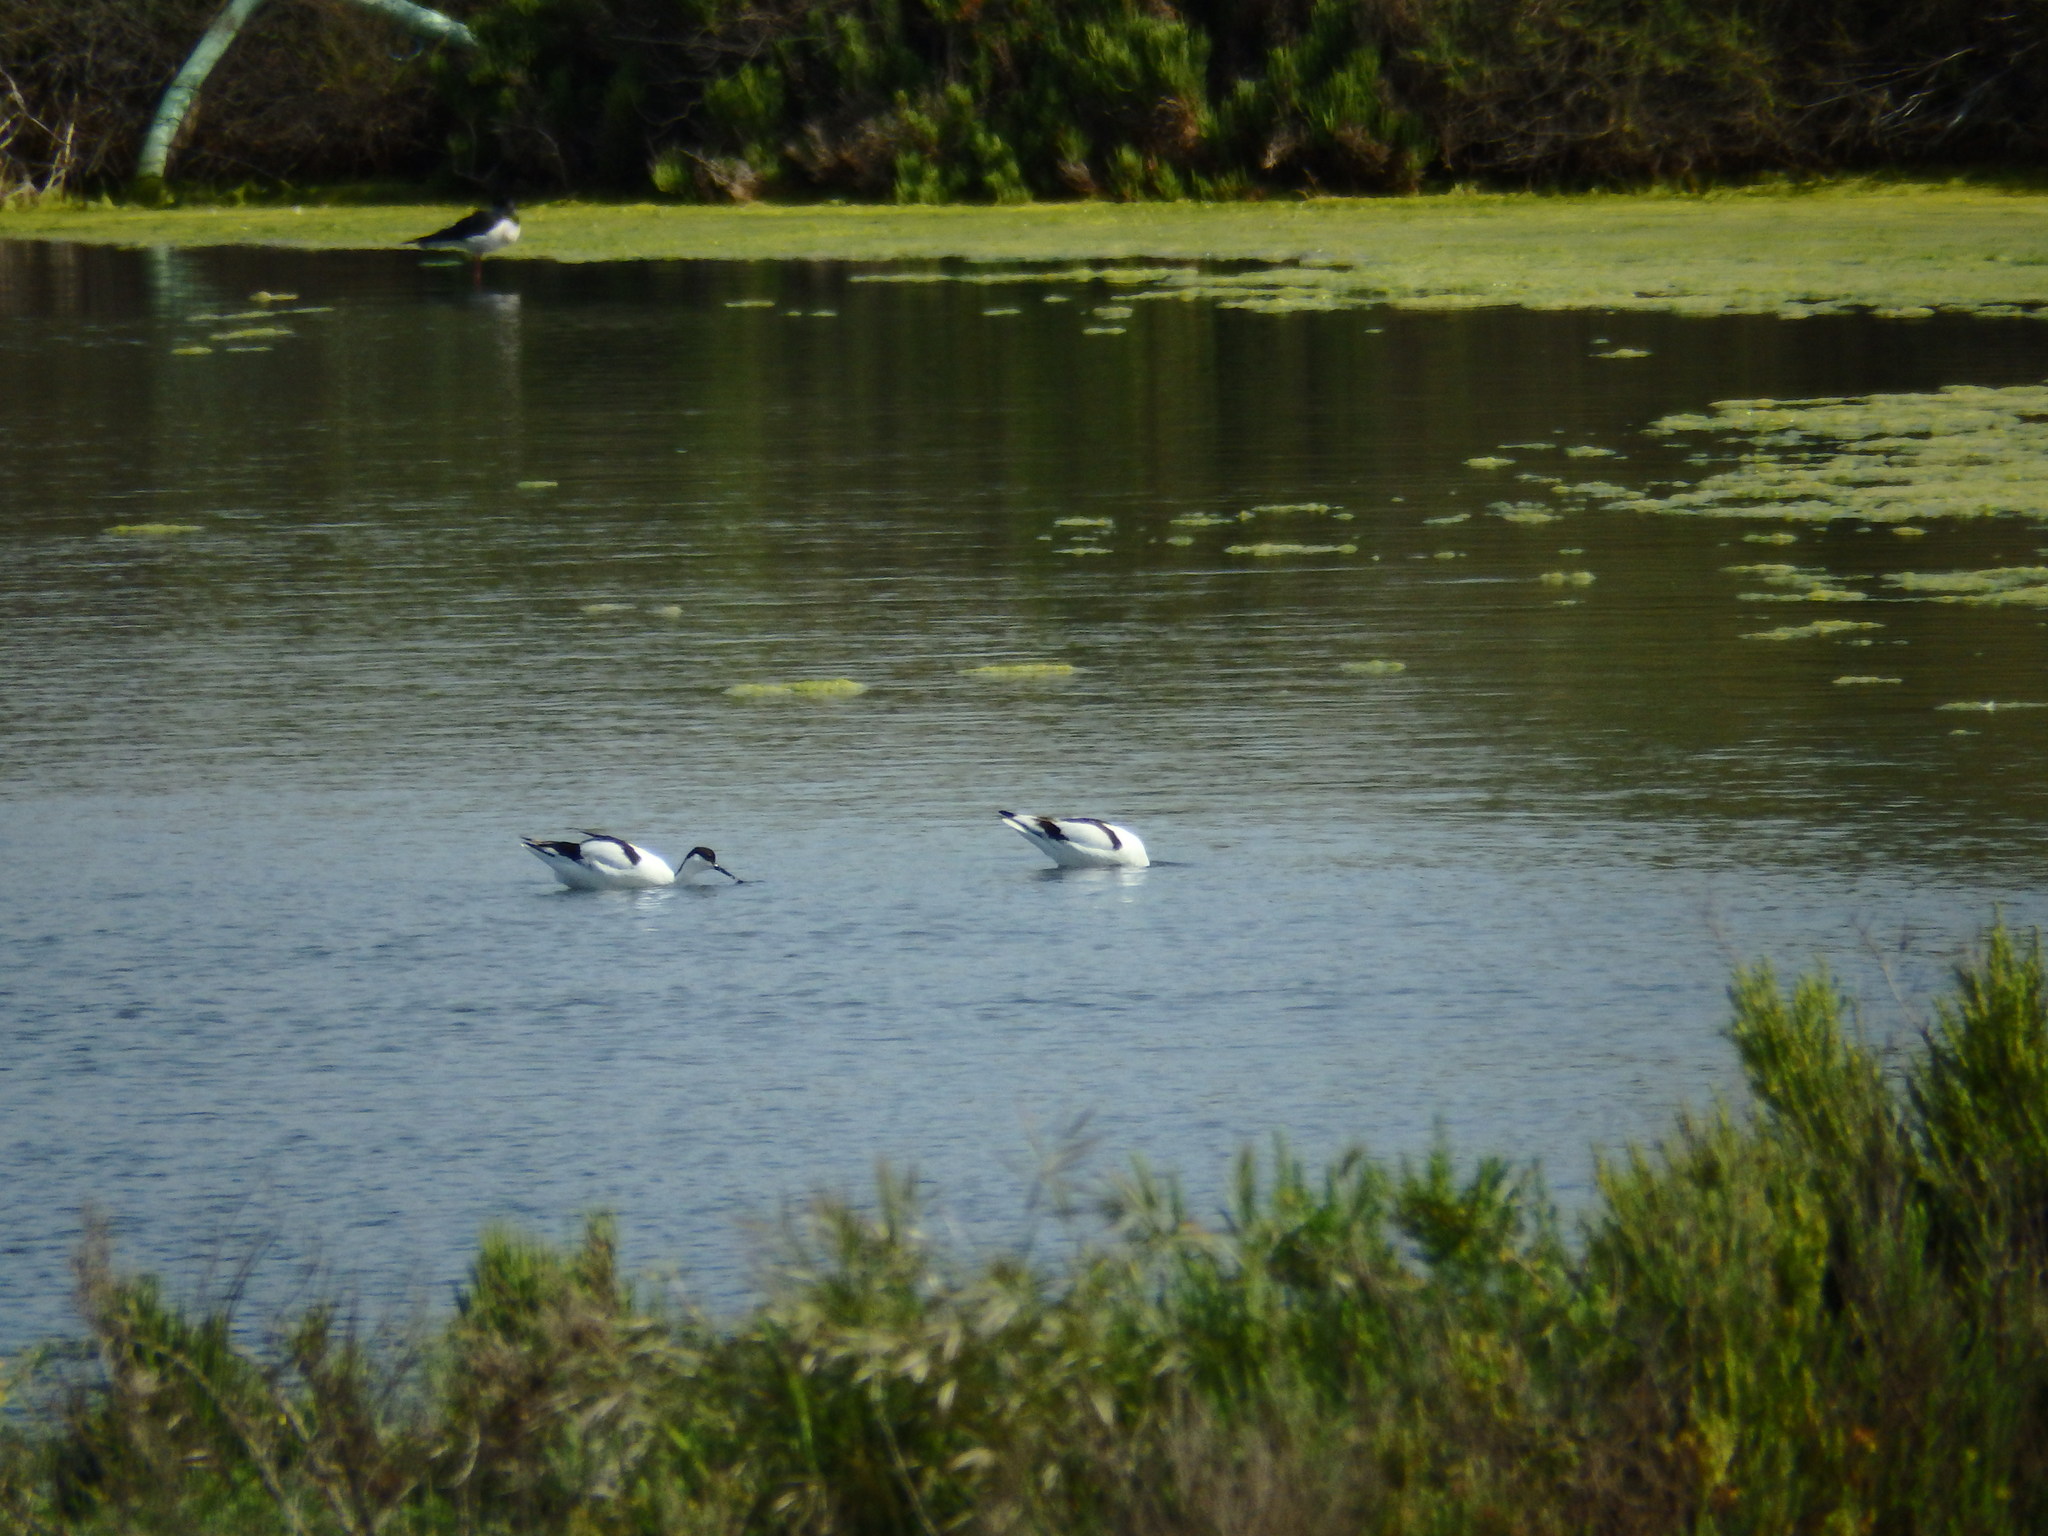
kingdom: Animalia
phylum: Chordata
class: Aves
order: Charadriiformes
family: Recurvirostridae
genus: Recurvirostra
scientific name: Recurvirostra avosetta
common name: Pied avocet
